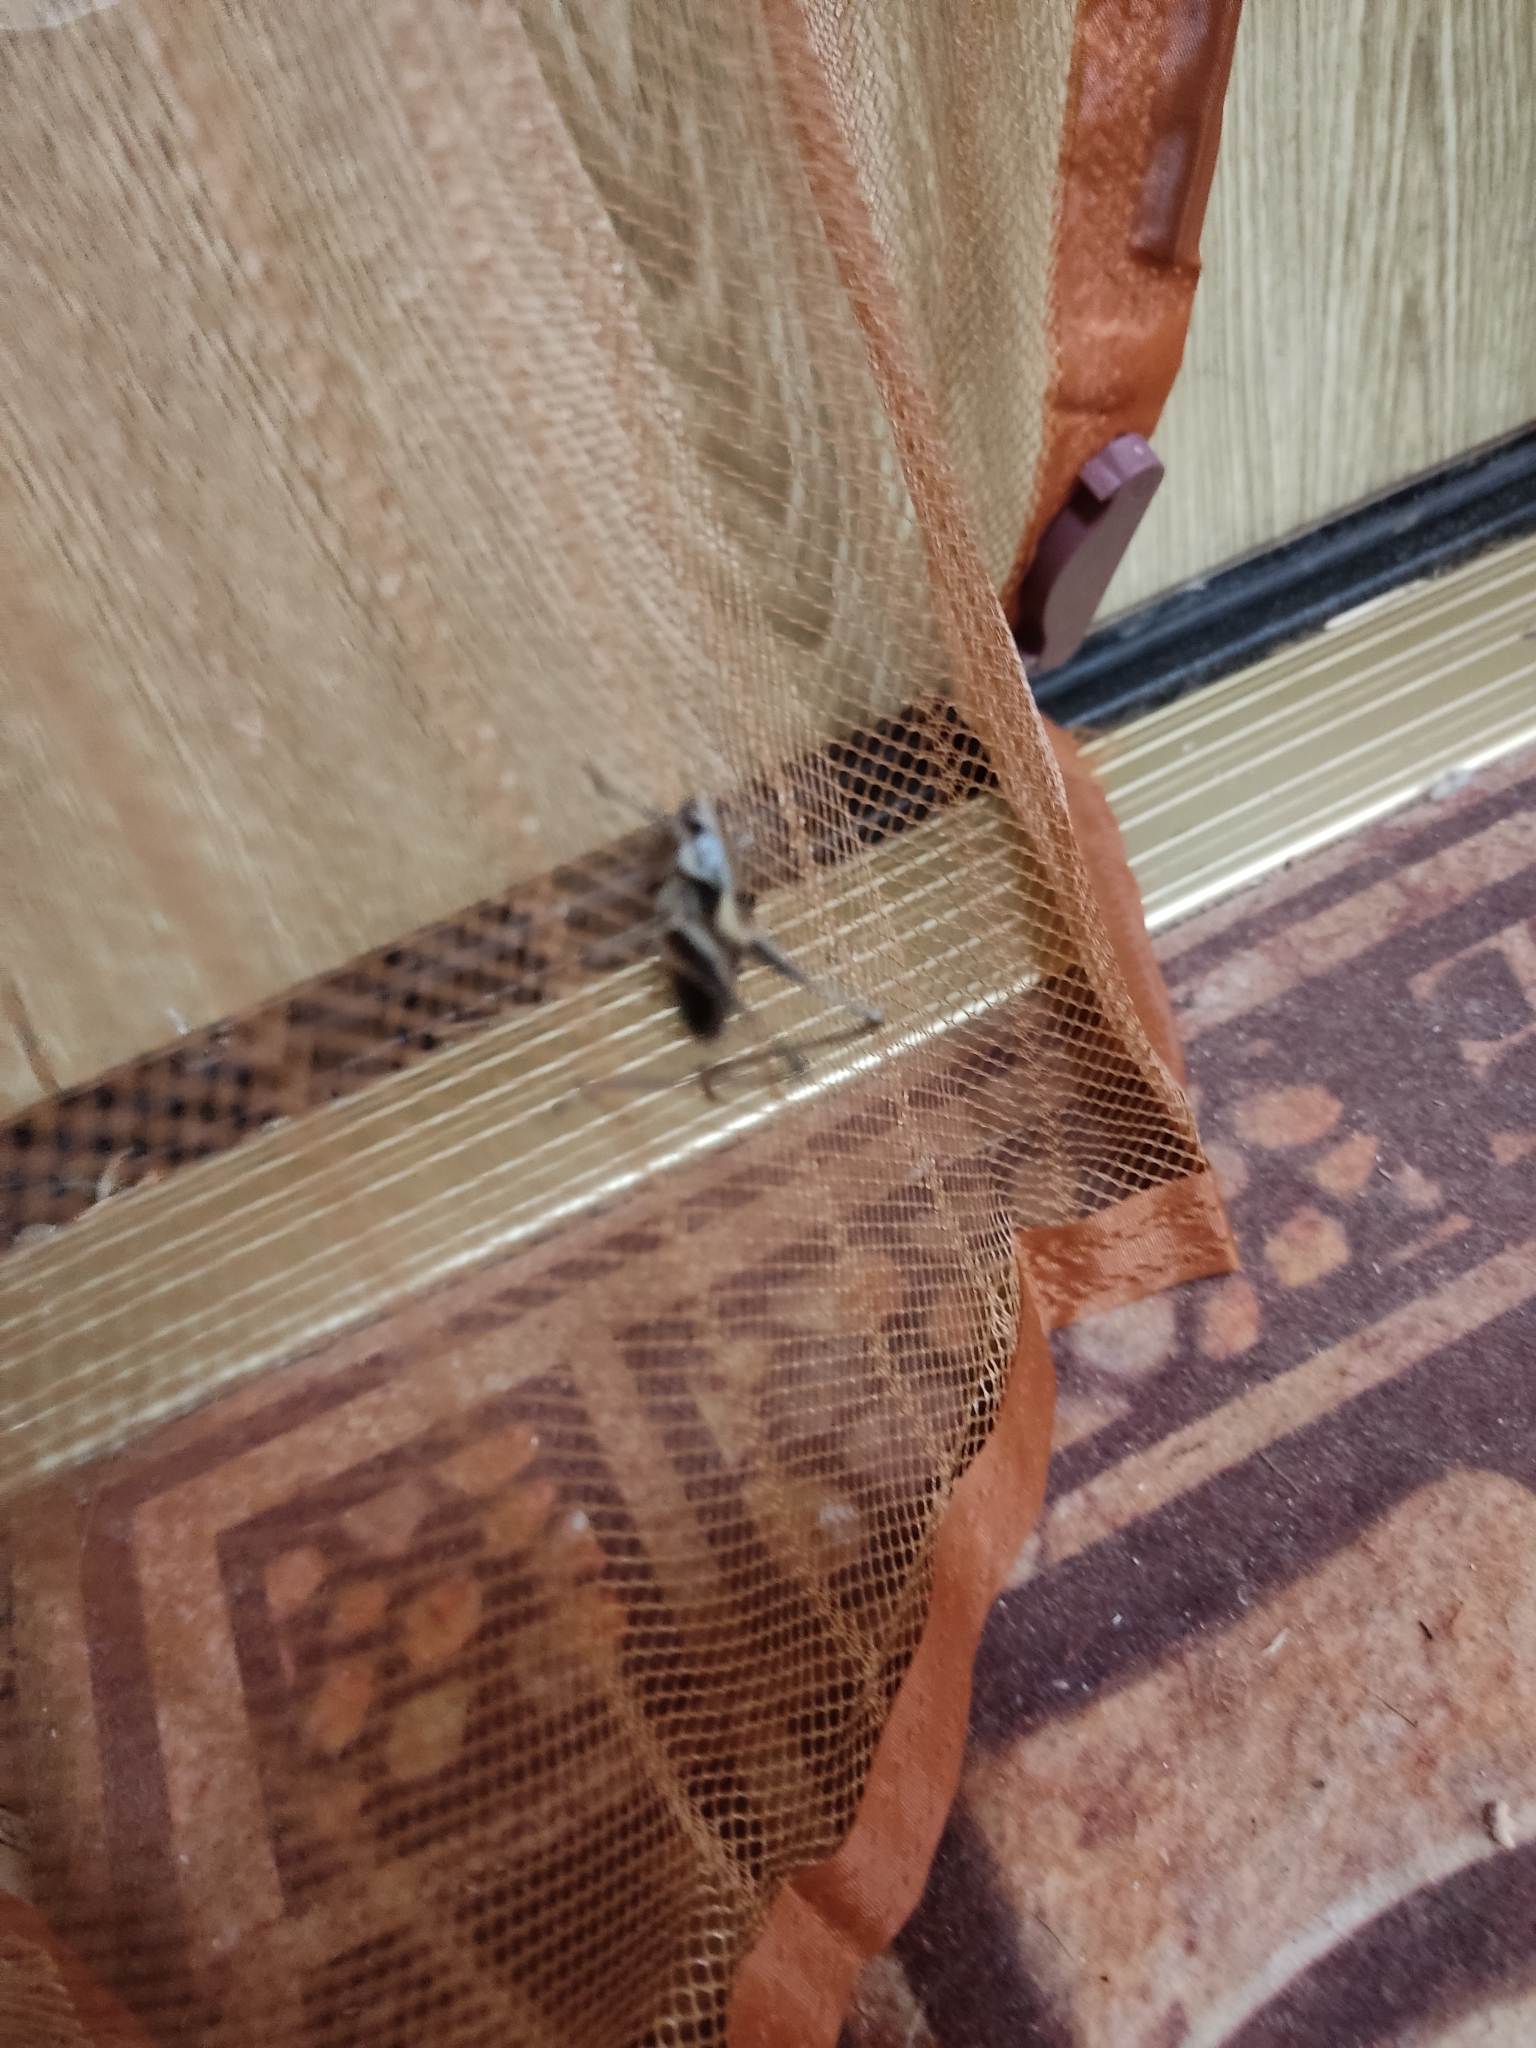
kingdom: Animalia
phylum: Arthropoda
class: Insecta
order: Orthoptera
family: Tettigoniidae
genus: Pholidoptera
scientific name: Pholidoptera griseoaptera
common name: Dark bush-cricket
